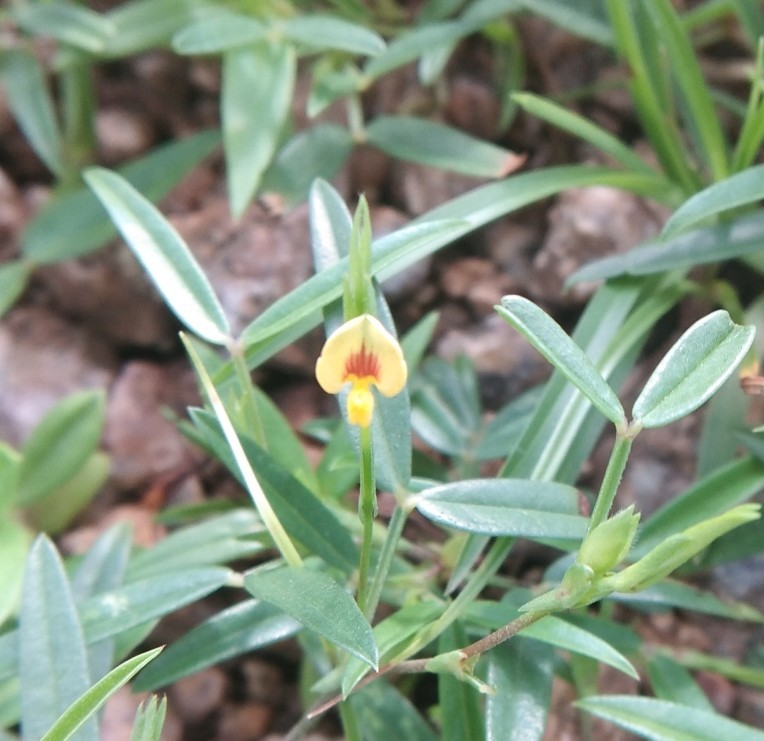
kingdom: Plantae
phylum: Tracheophyta
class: Magnoliopsida
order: Fabales
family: Fabaceae
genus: Zornia
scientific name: Zornia gibbosa
